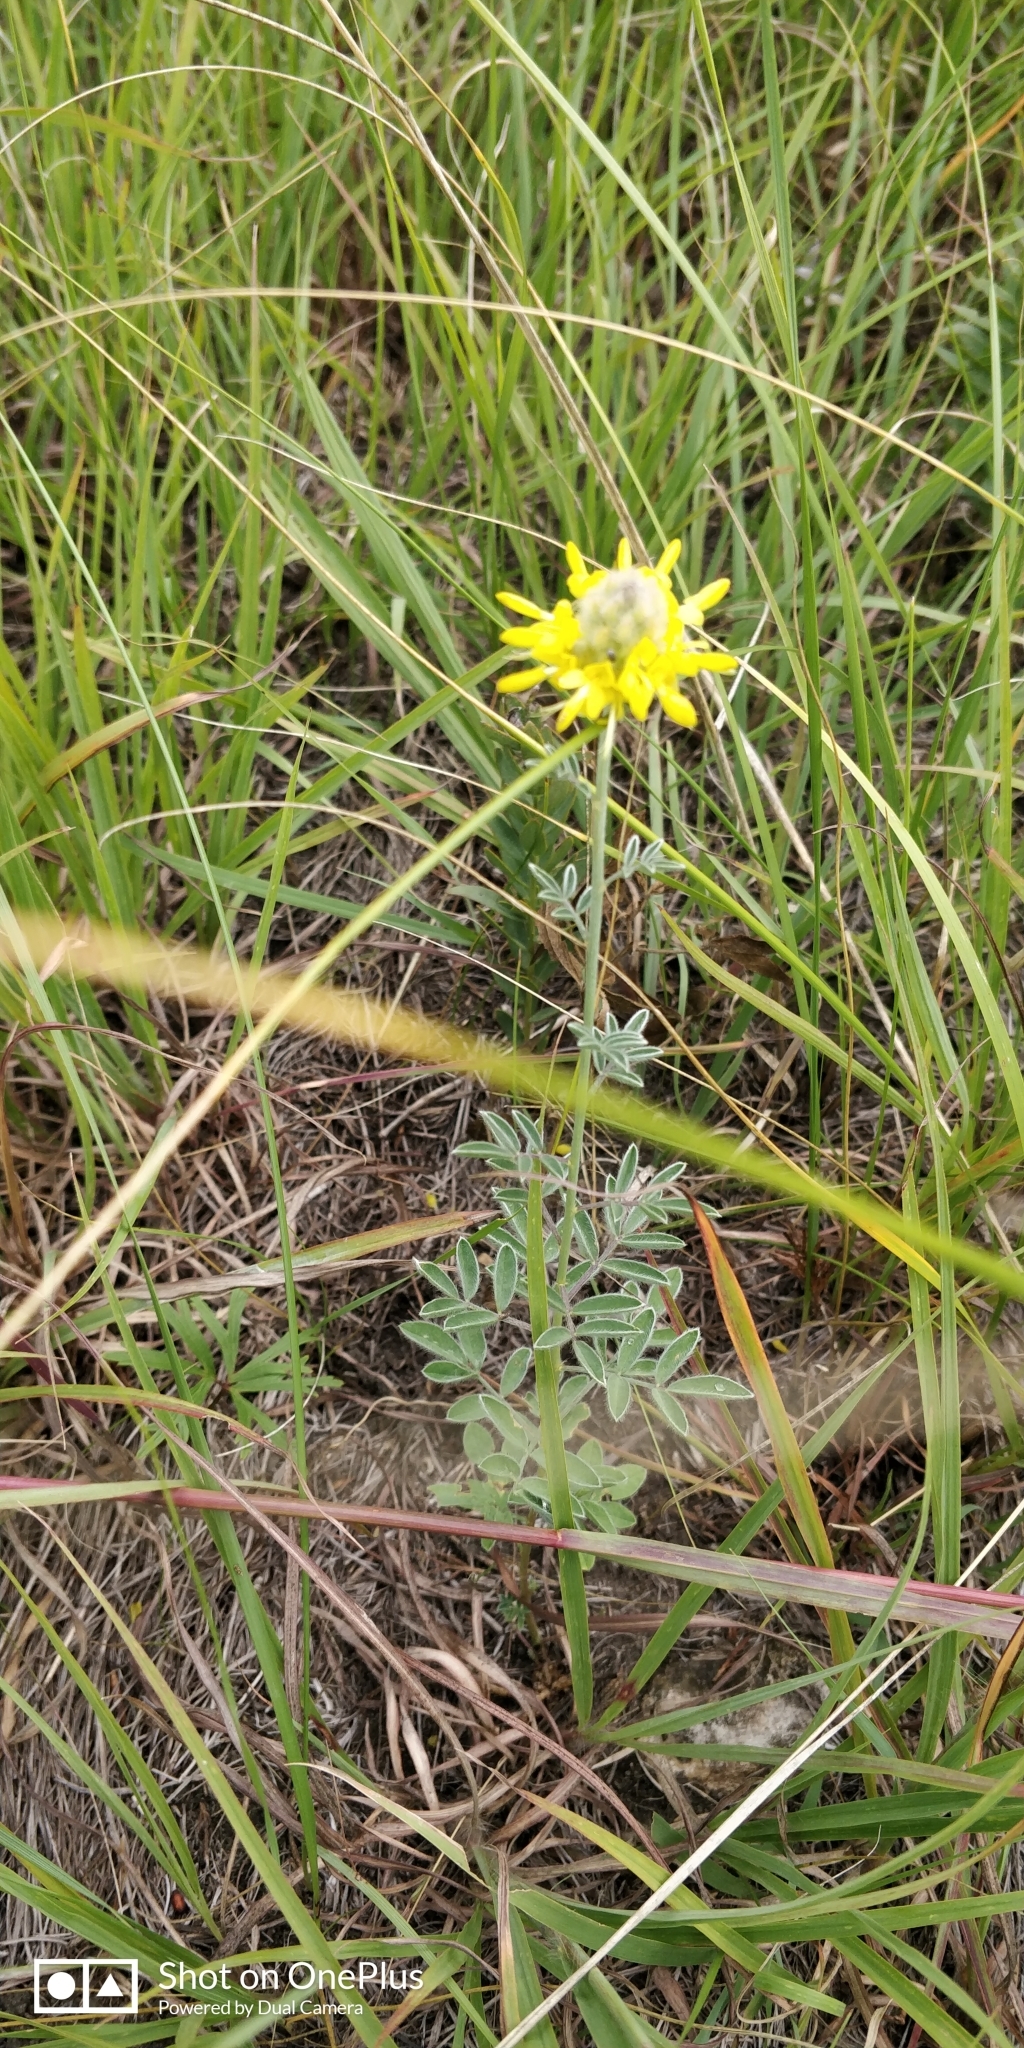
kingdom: Plantae
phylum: Tracheophyta
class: Magnoliopsida
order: Fabales
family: Fabaceae
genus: Dalea
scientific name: Dalea aurea
